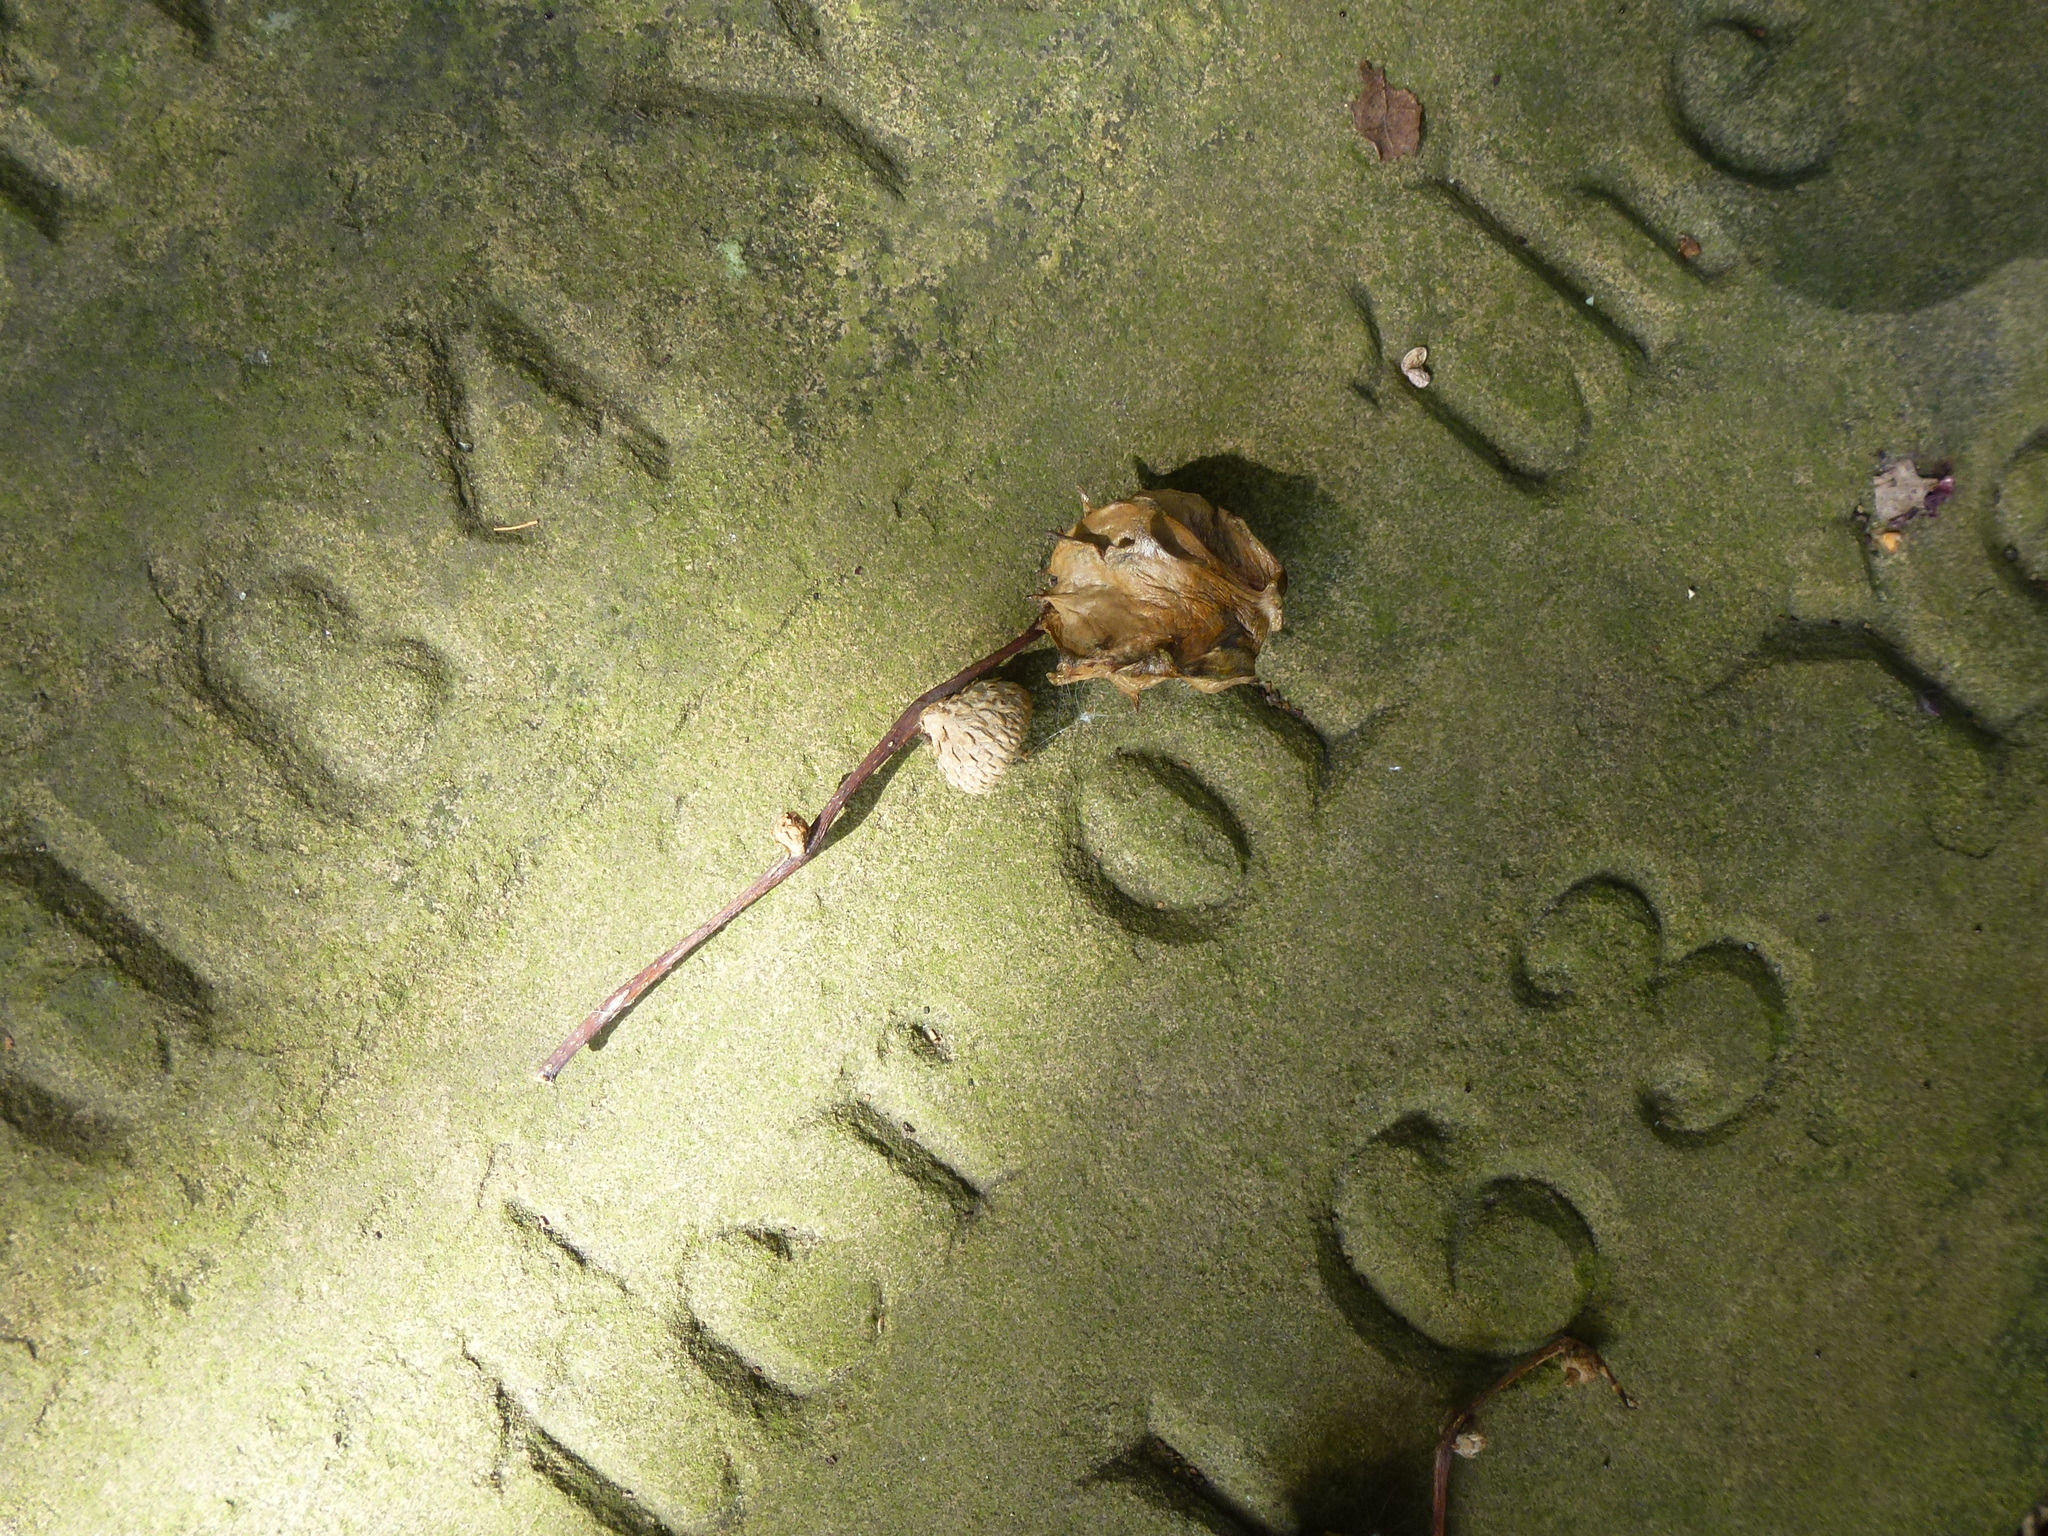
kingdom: Animalia
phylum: Arthropoda
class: Insecta
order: Hymenoptera
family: Cynipidae
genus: Andricus
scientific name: Andricus quercuscalicis
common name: Knopper gall
